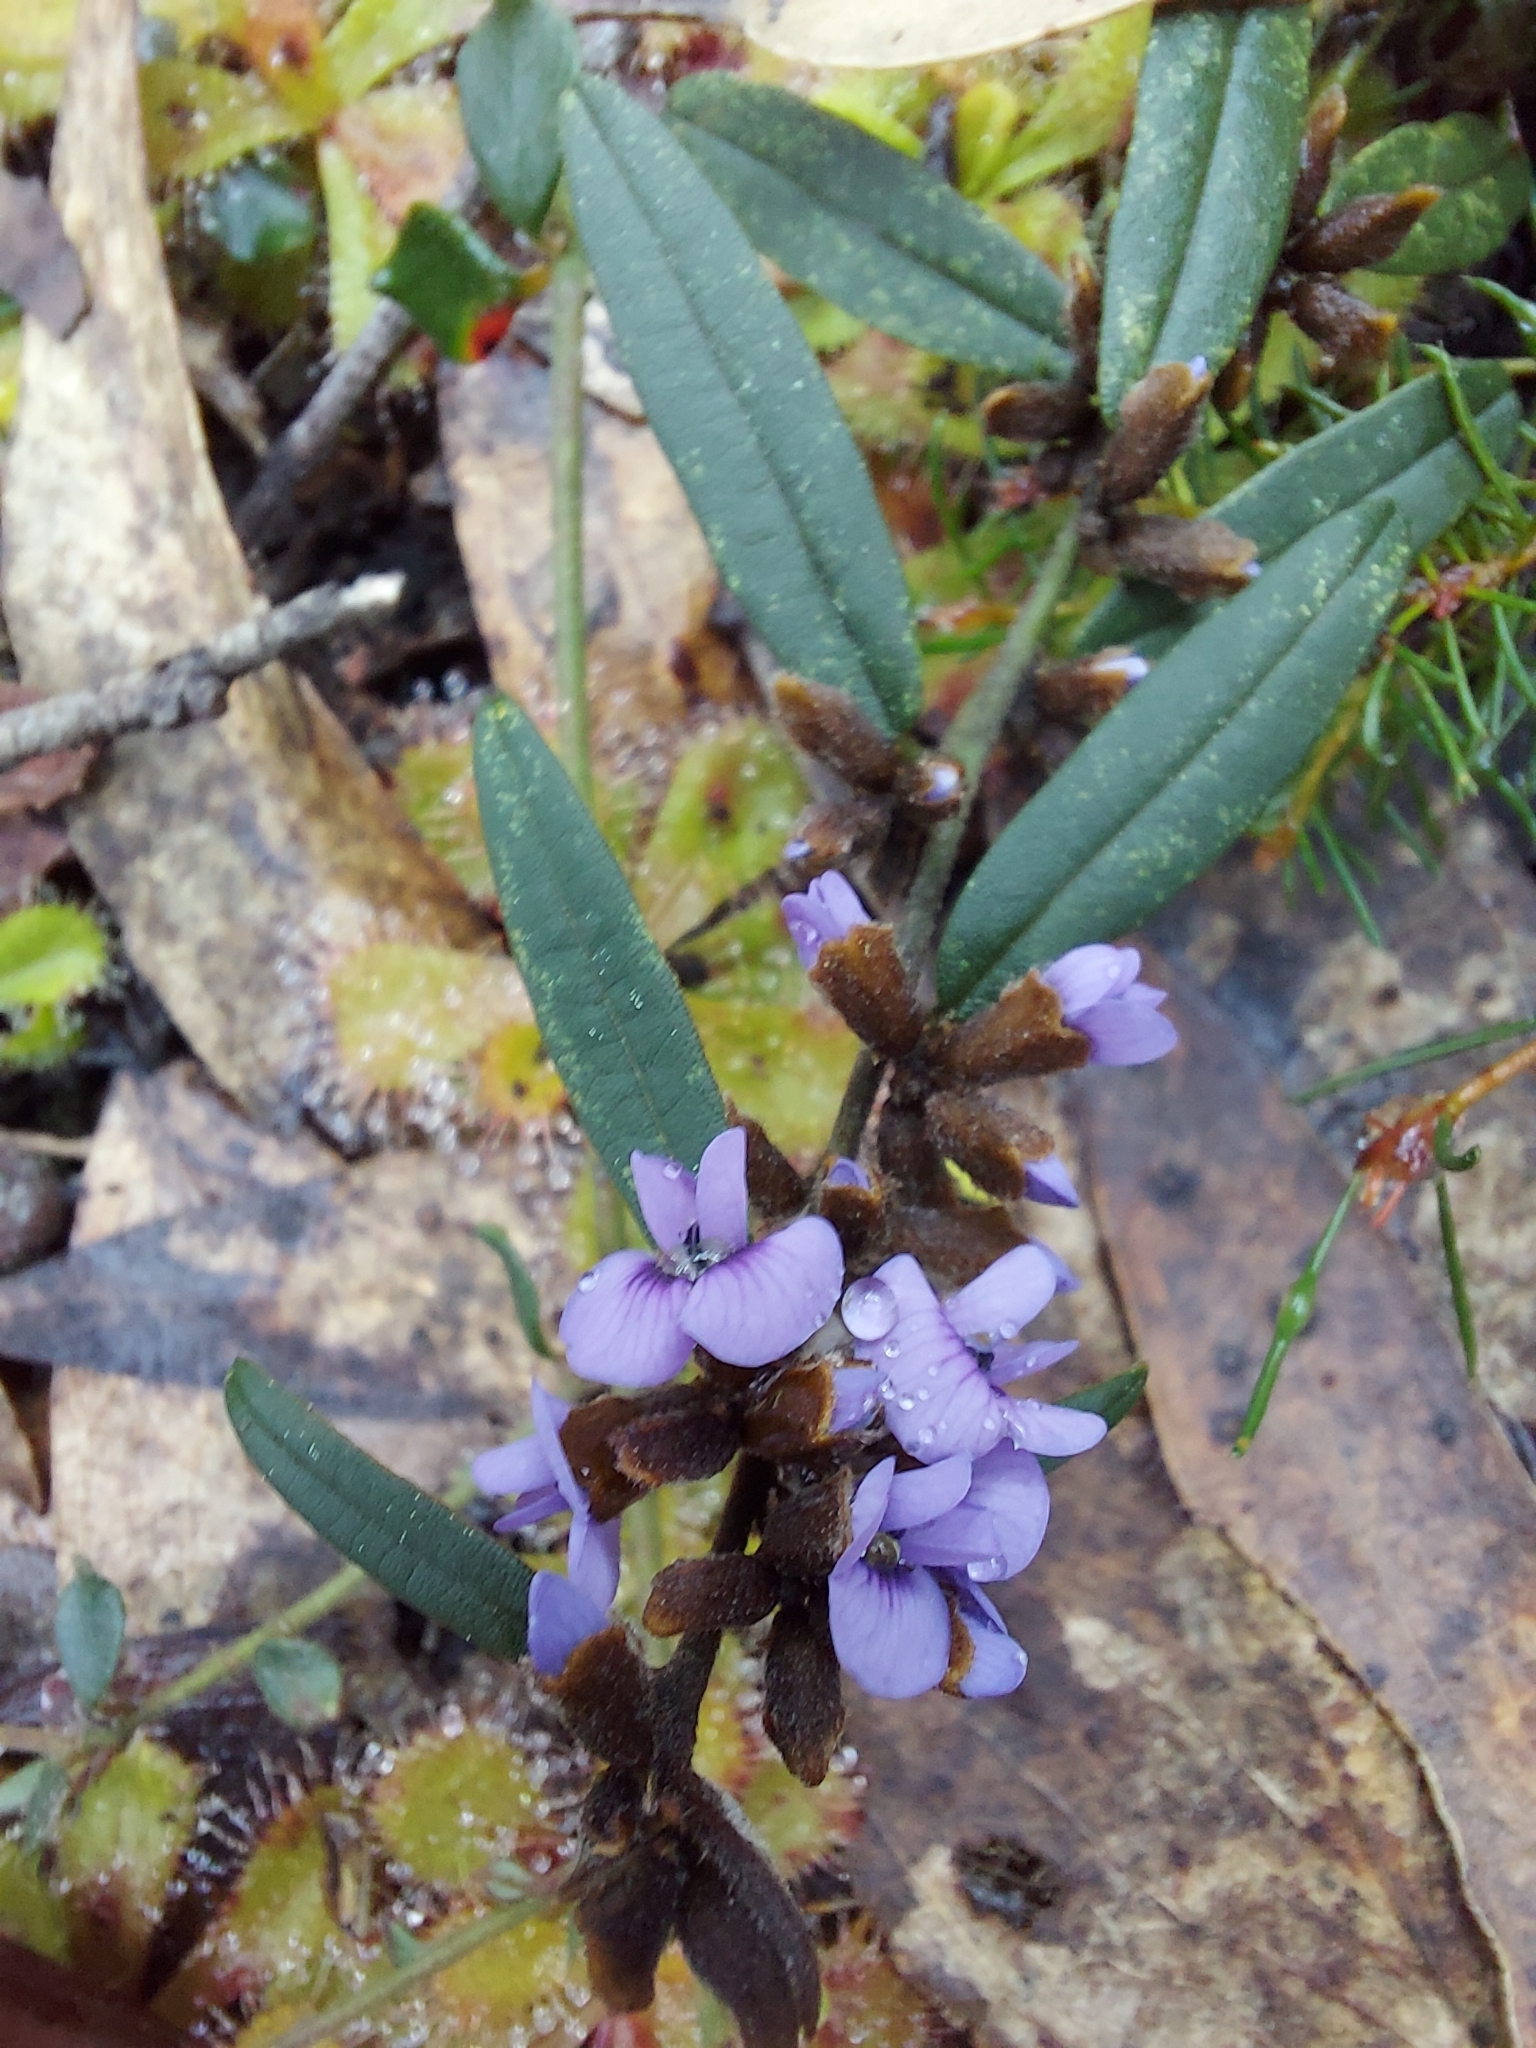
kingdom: Plantae
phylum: Tracheophyta
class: Magnoliopsida
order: Fabales
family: Fabaceae
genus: Hovea
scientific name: Hovea heterophylla
